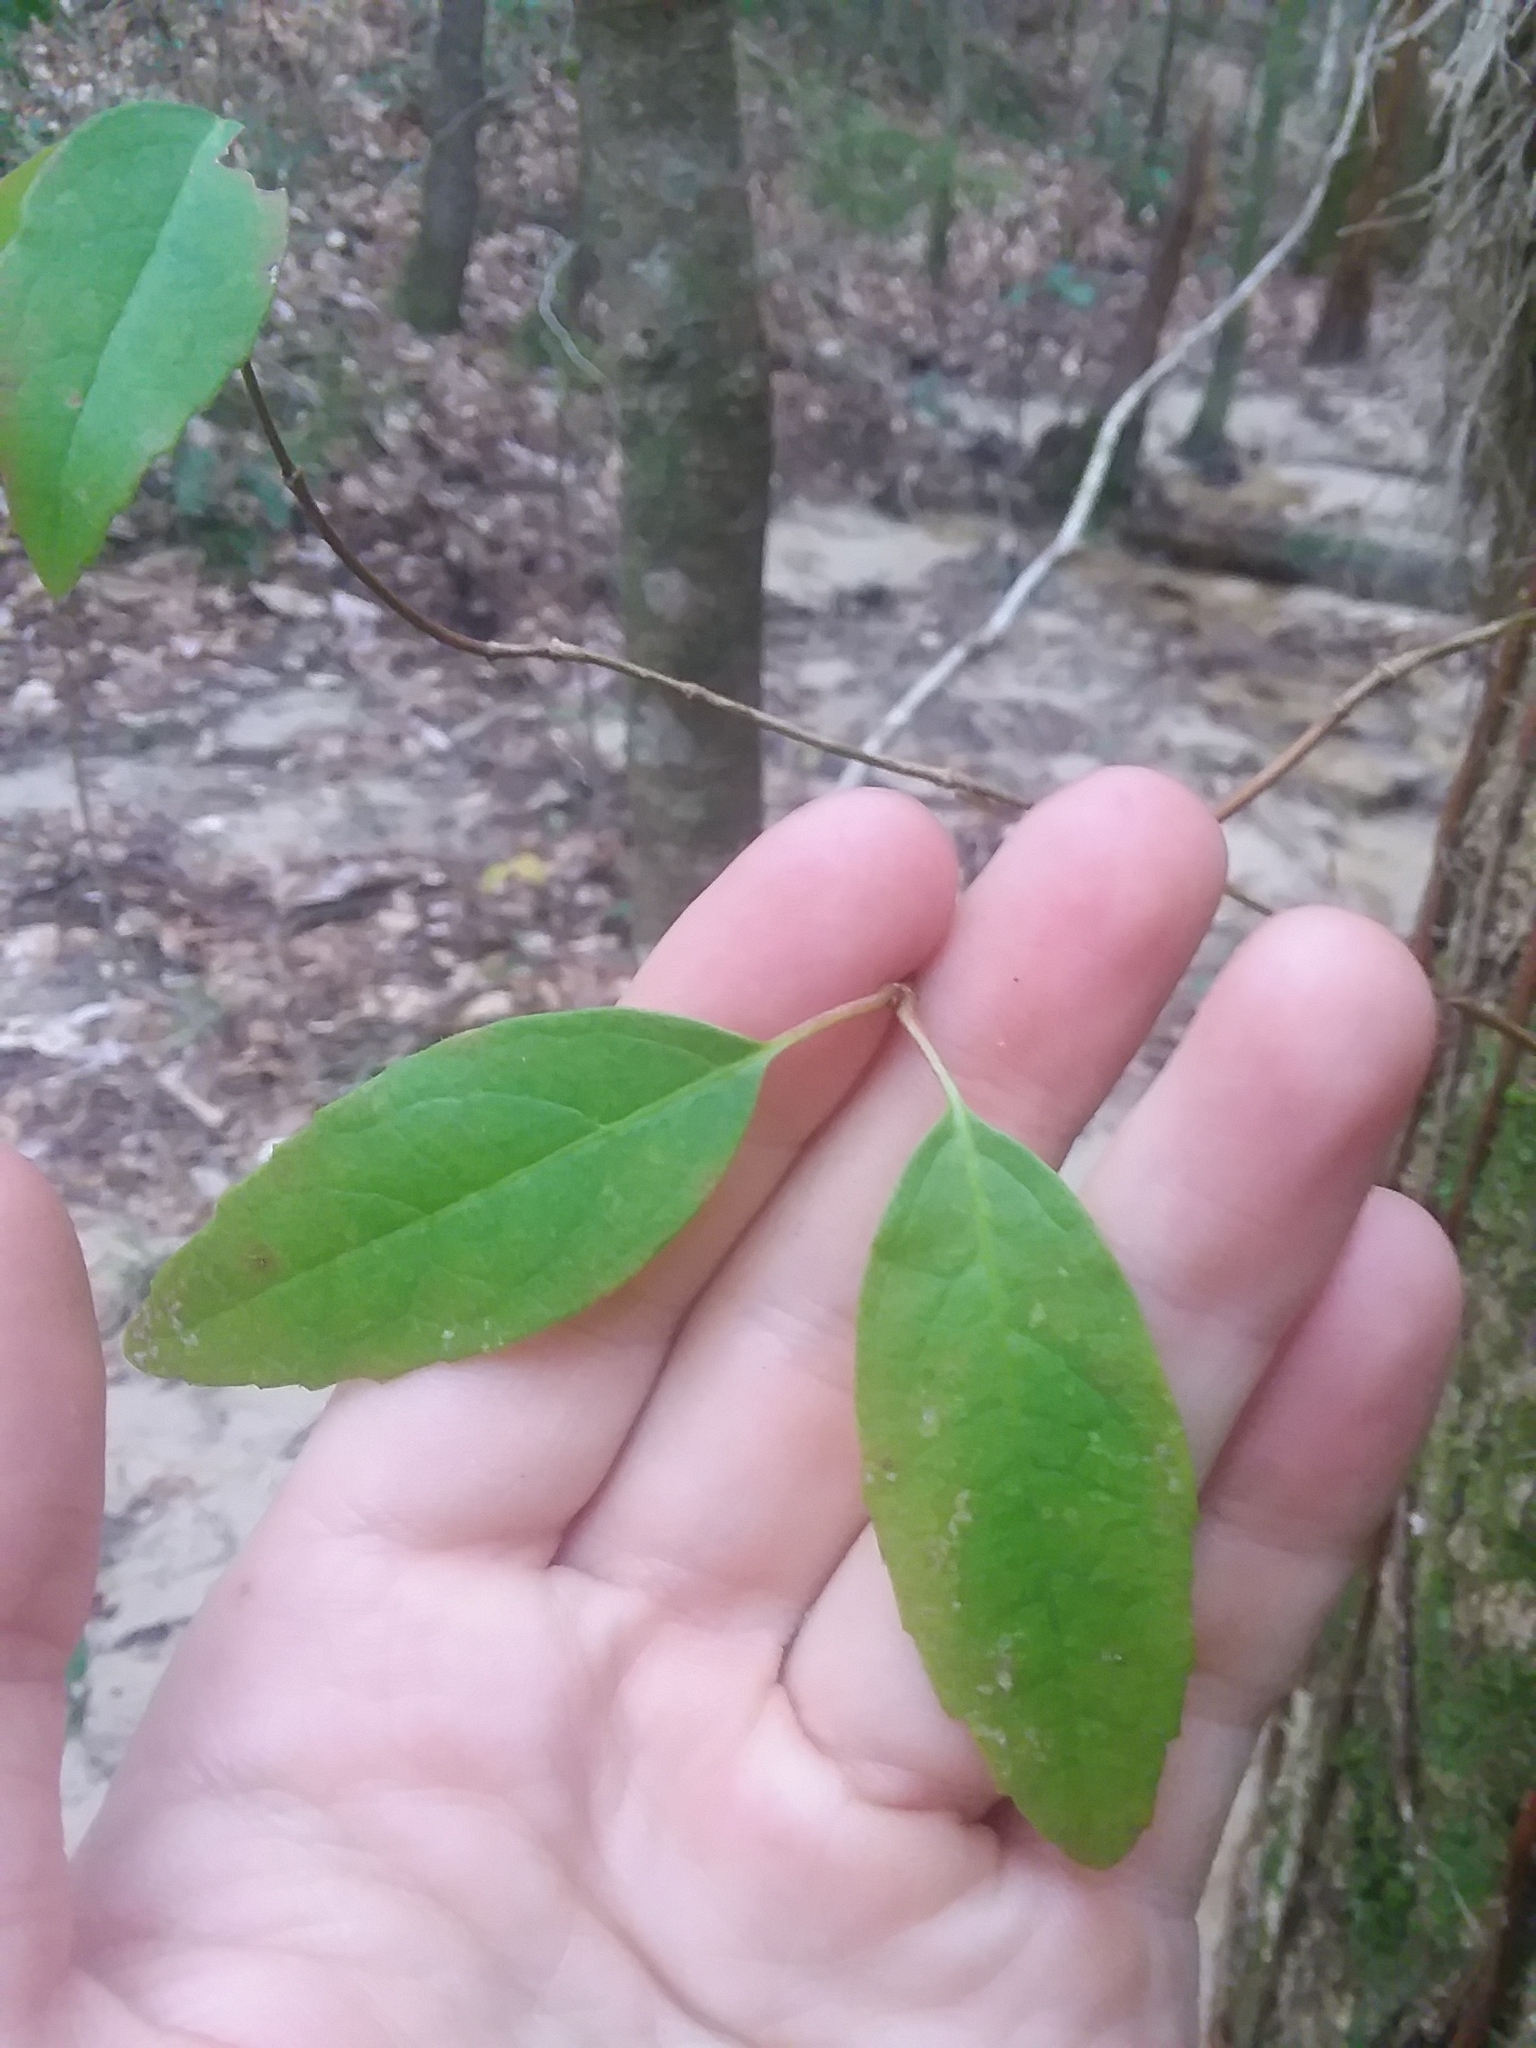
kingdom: Plantae
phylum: Tracheophyta
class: Magnoliopsida
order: Cornales
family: Hydrangeaceae
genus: Hydrangea
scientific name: Hydrangea barbara
